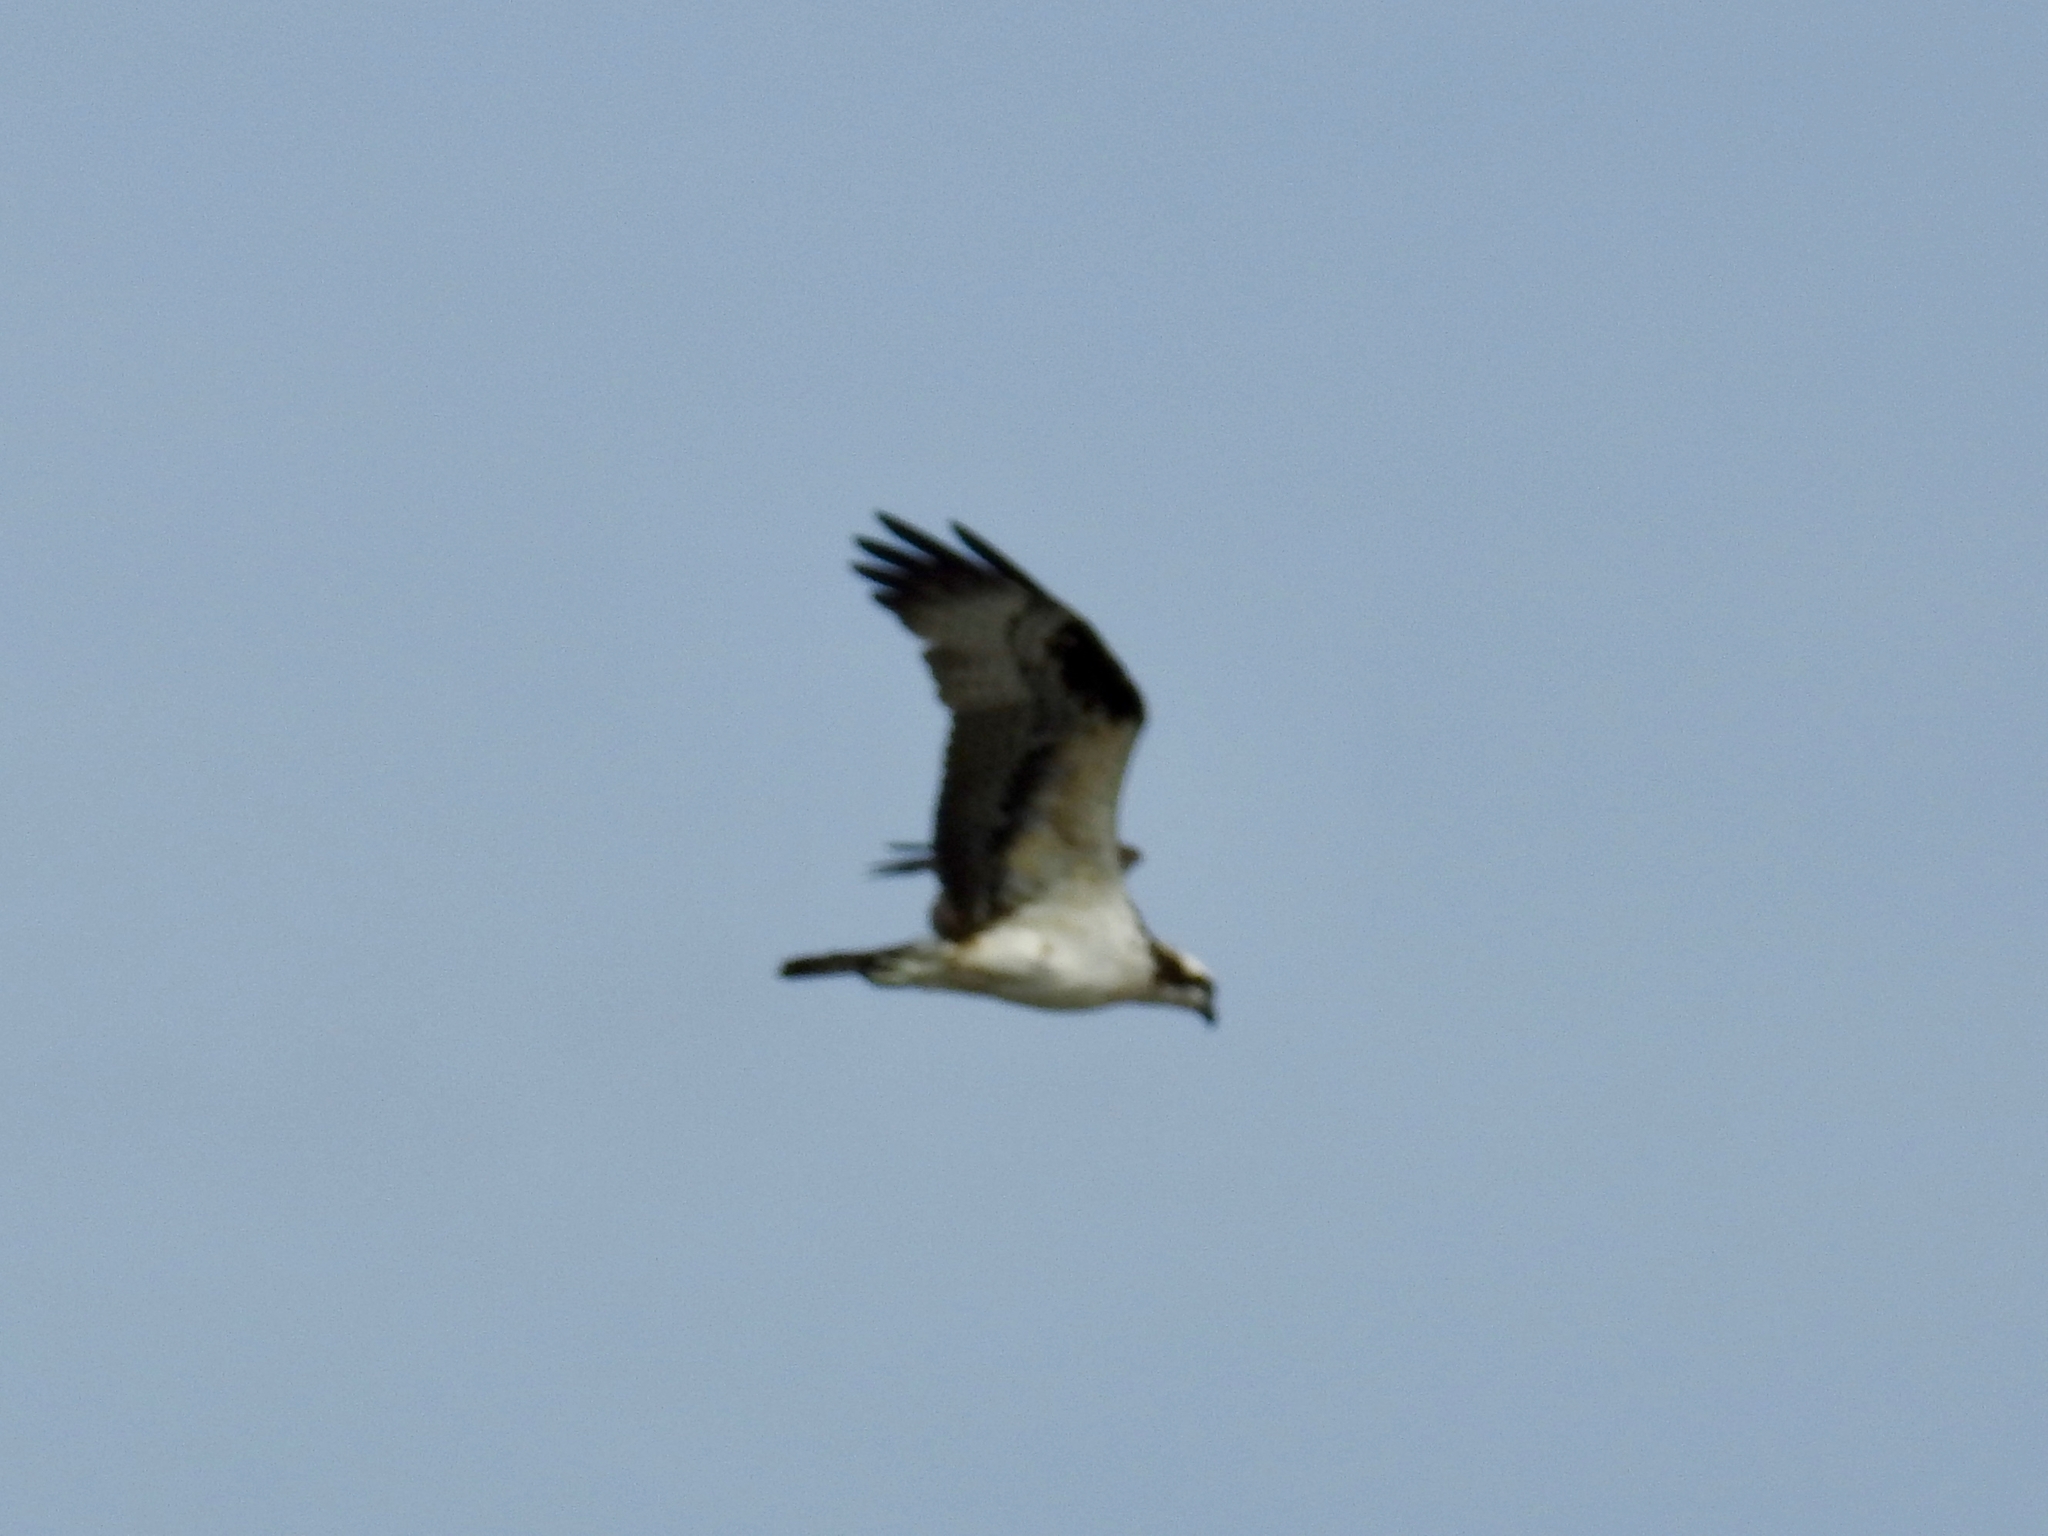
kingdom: Animalia
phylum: Chordata
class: Aves
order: Accipitriformes
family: Pandionidae
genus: Pandion
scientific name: Pandion haliaetus
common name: Osprey
